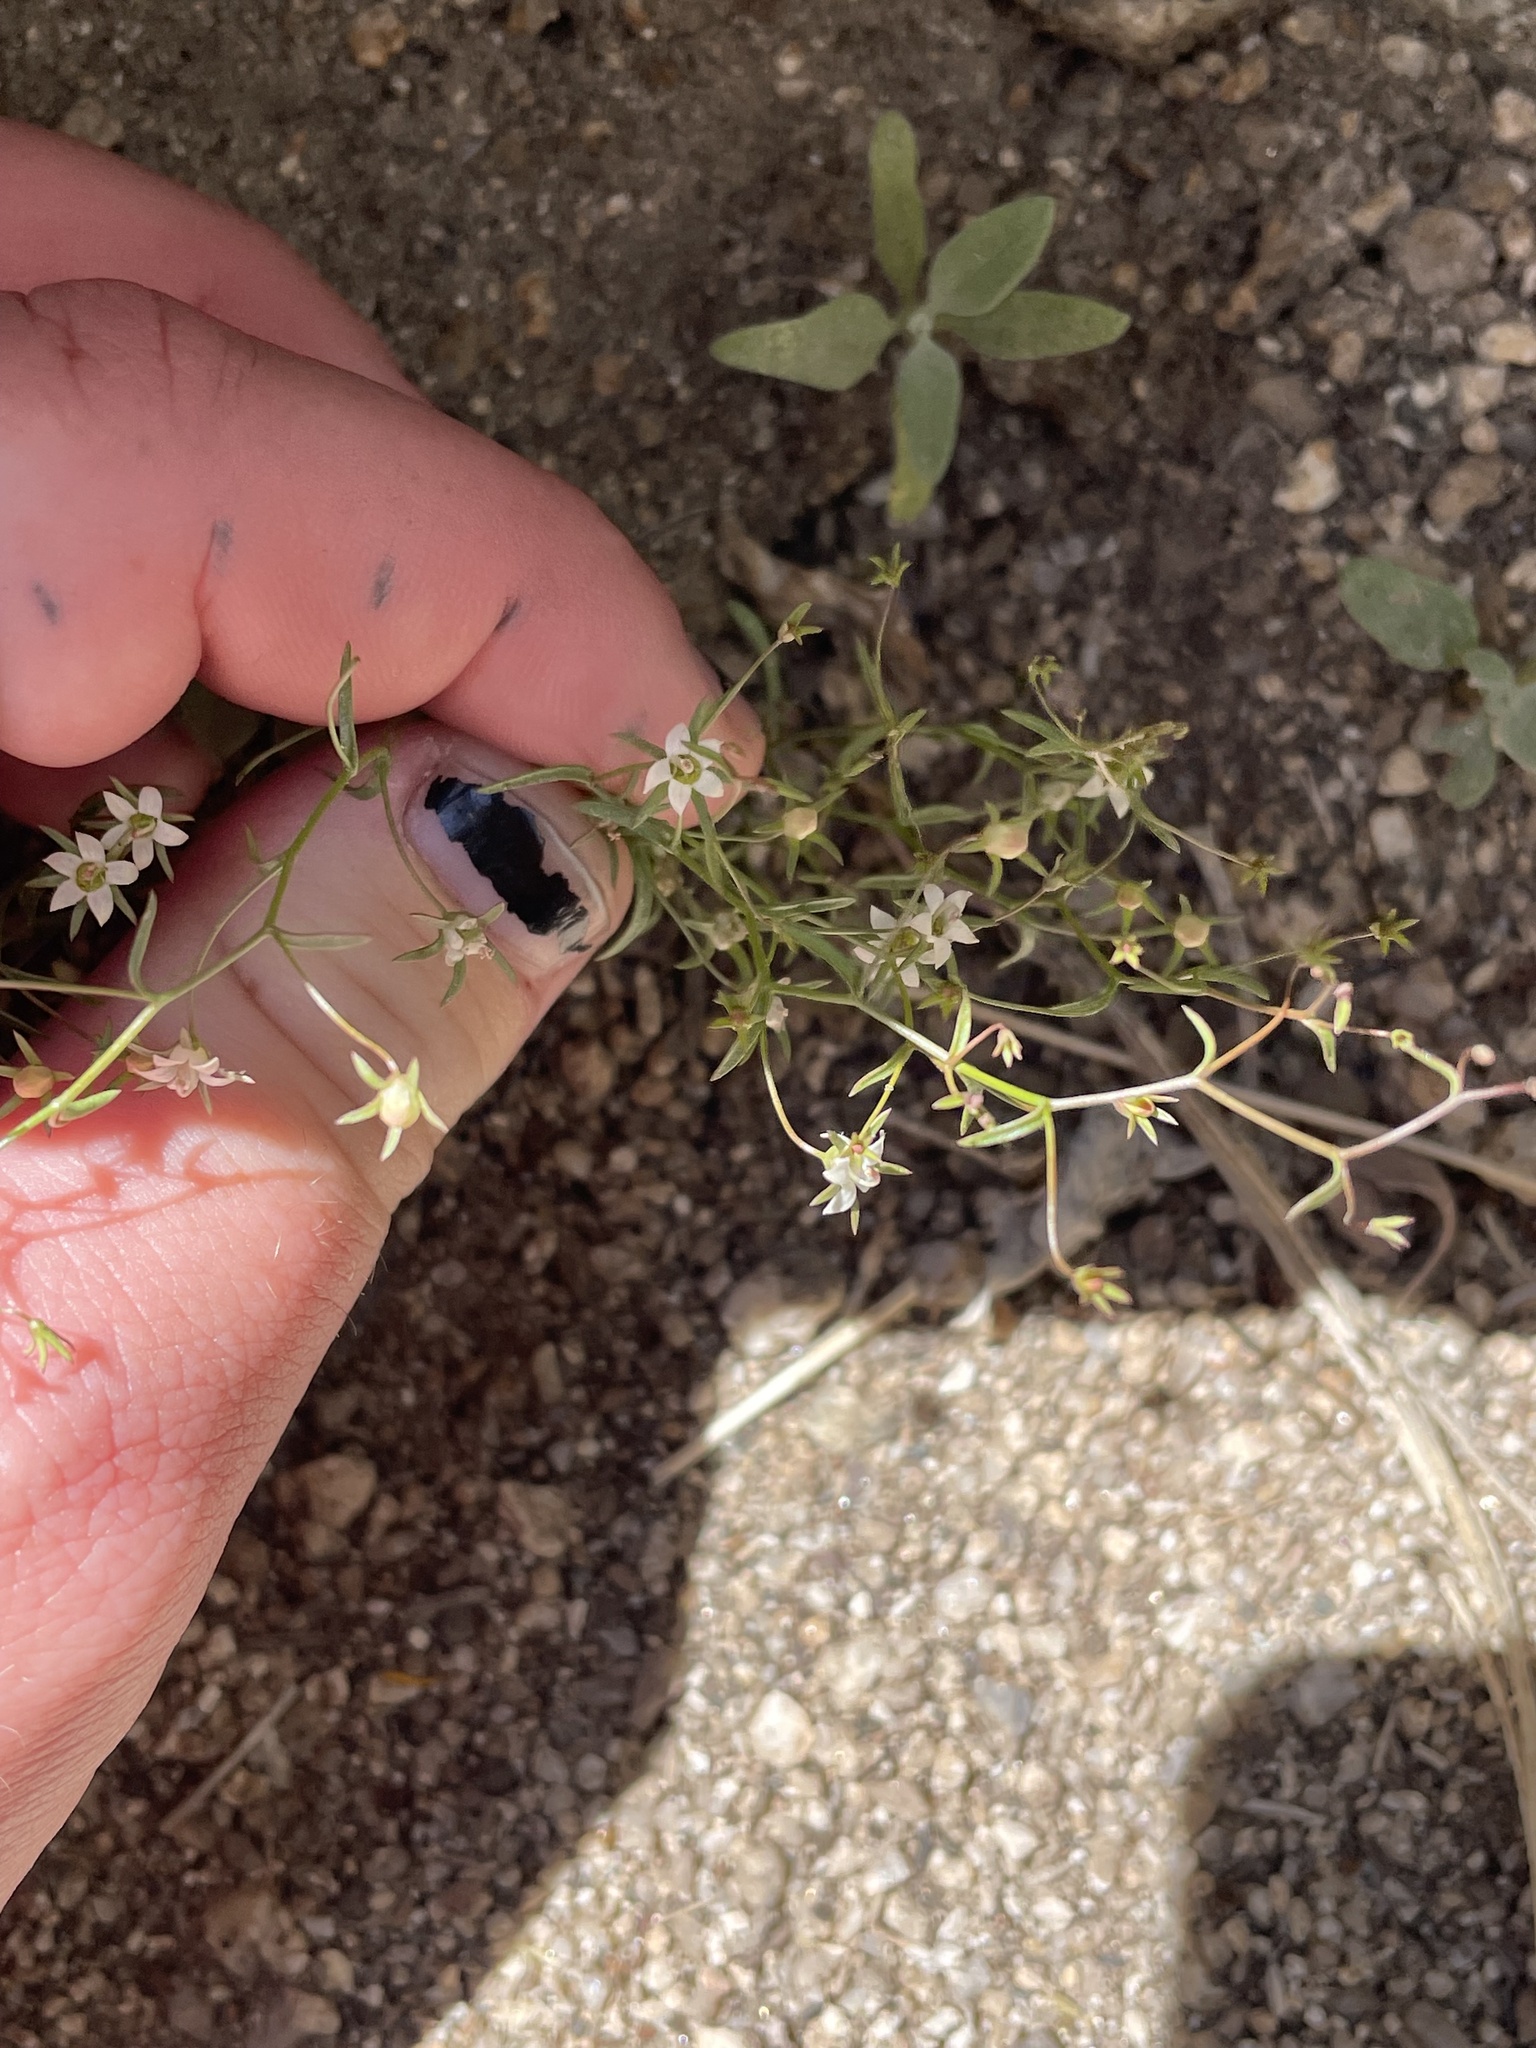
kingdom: Plantae
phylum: Tracheophyta
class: Magnoliopsida
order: Asterales
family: Campanulaceae
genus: Nemacladus
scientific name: Nemacladus glanduliferus
